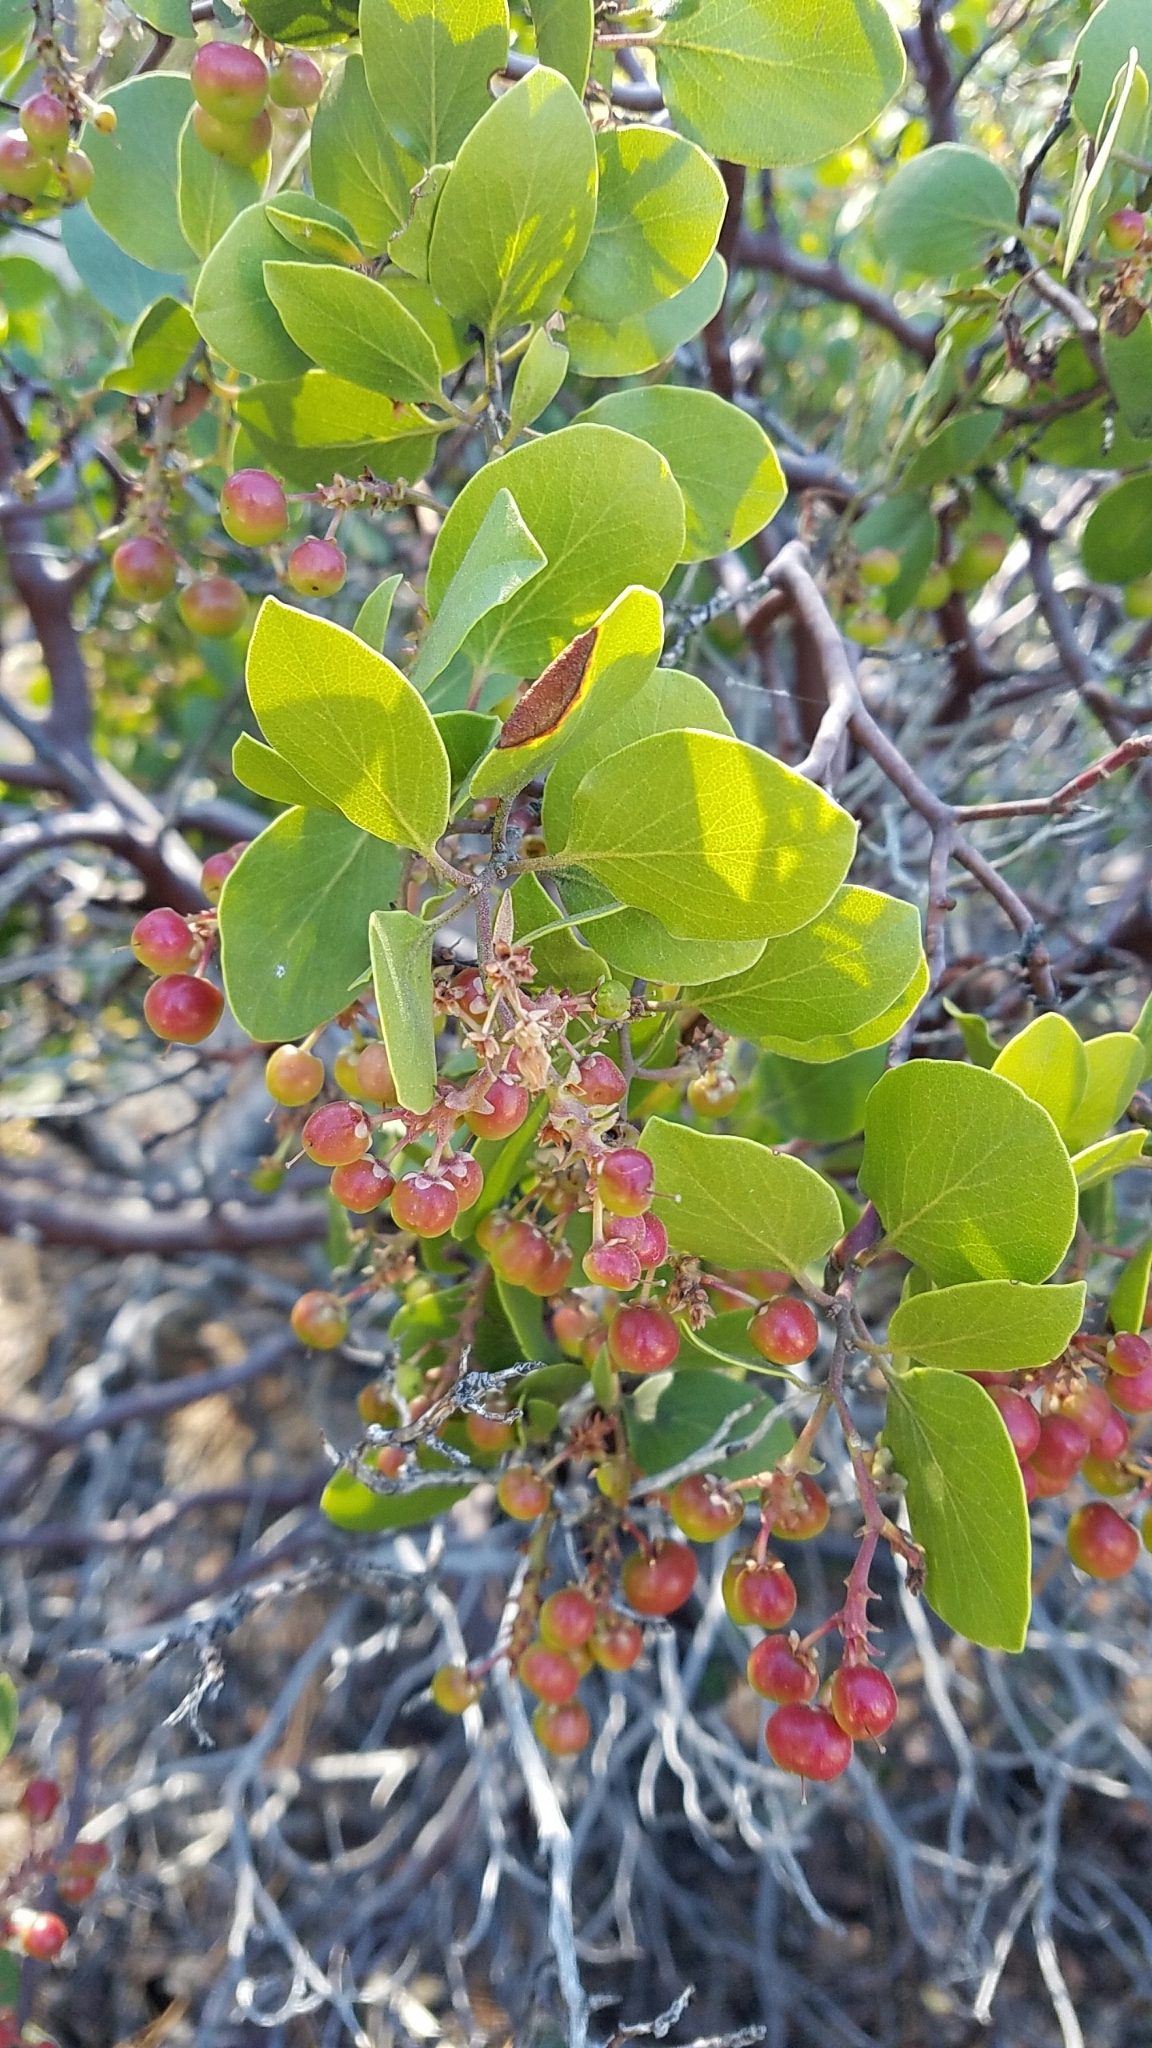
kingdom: Plantae
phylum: Tracheophyta
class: Magnoliopsida
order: Ericales
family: Ericaceae
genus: Arctostaphylos
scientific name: Arctostaphylos patula
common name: Green-leaf manzanita
